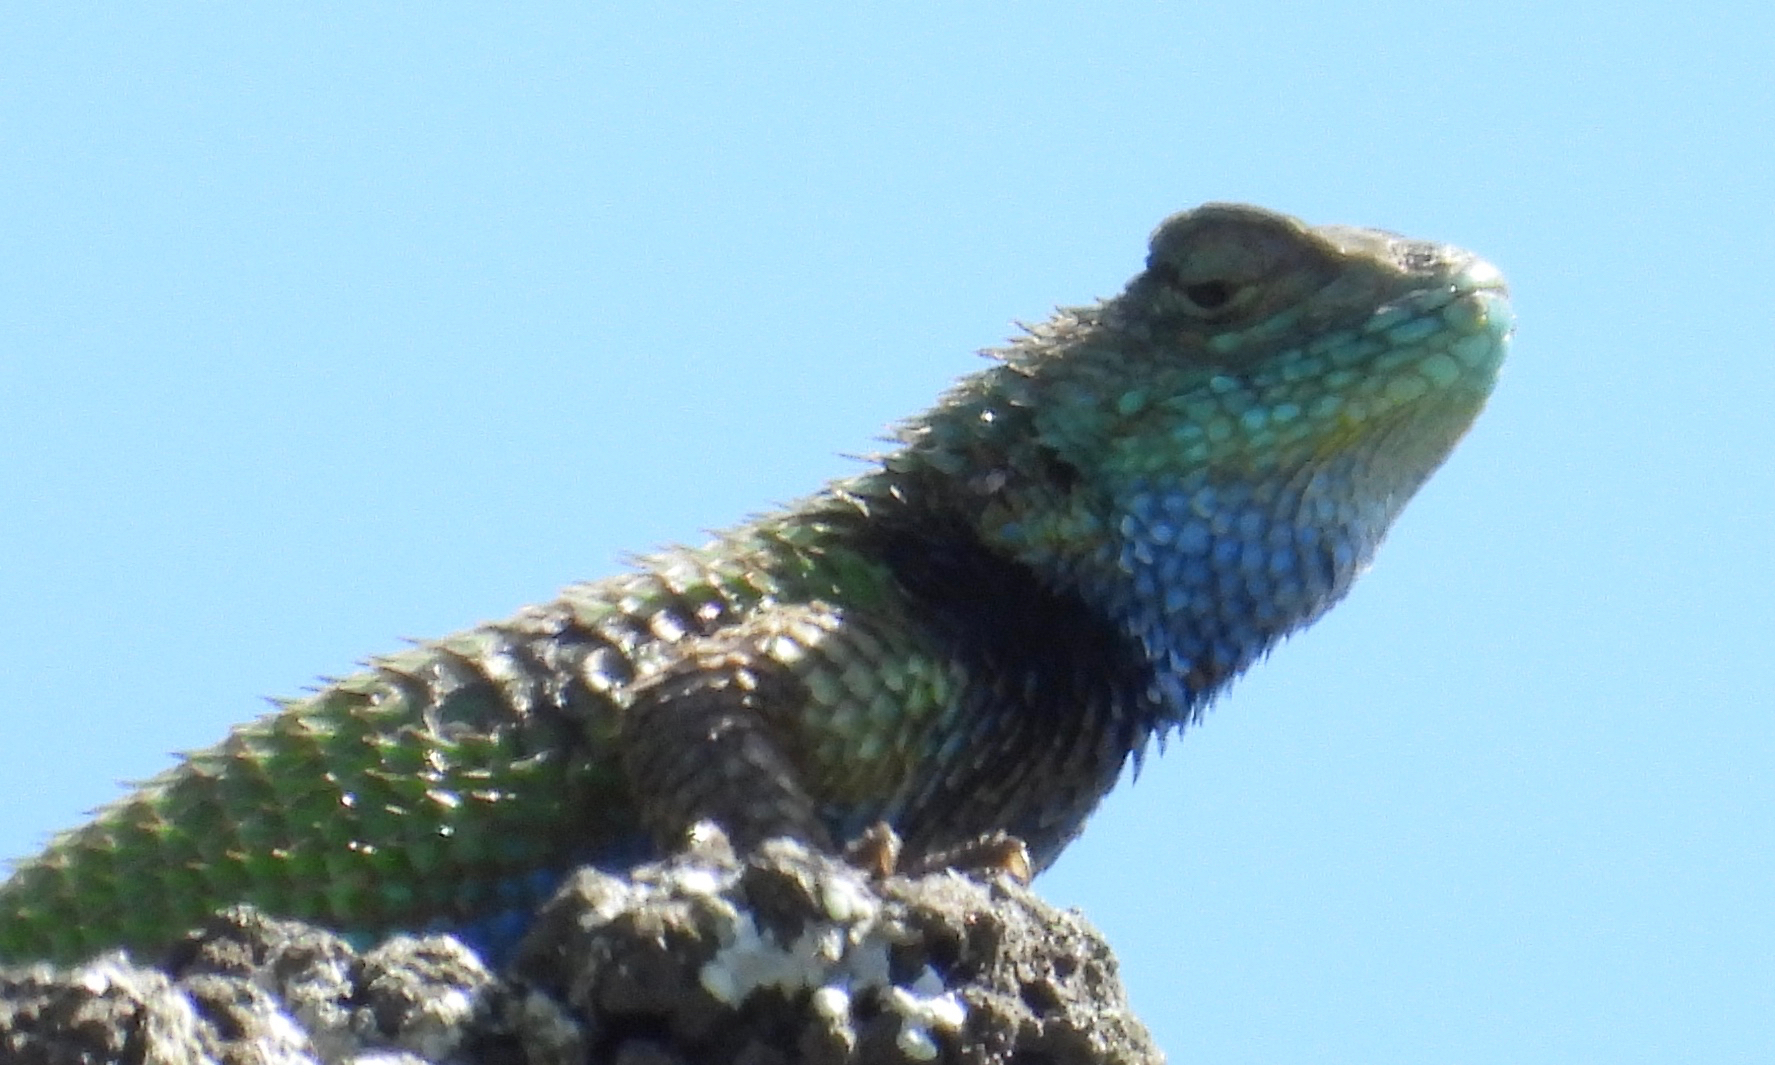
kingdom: Animalia
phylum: Chordata
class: Squamata
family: Phrynosomatidae
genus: Sceloporus
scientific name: Sceloporus smaragdinus
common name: Bocourt’s emerald lizard
